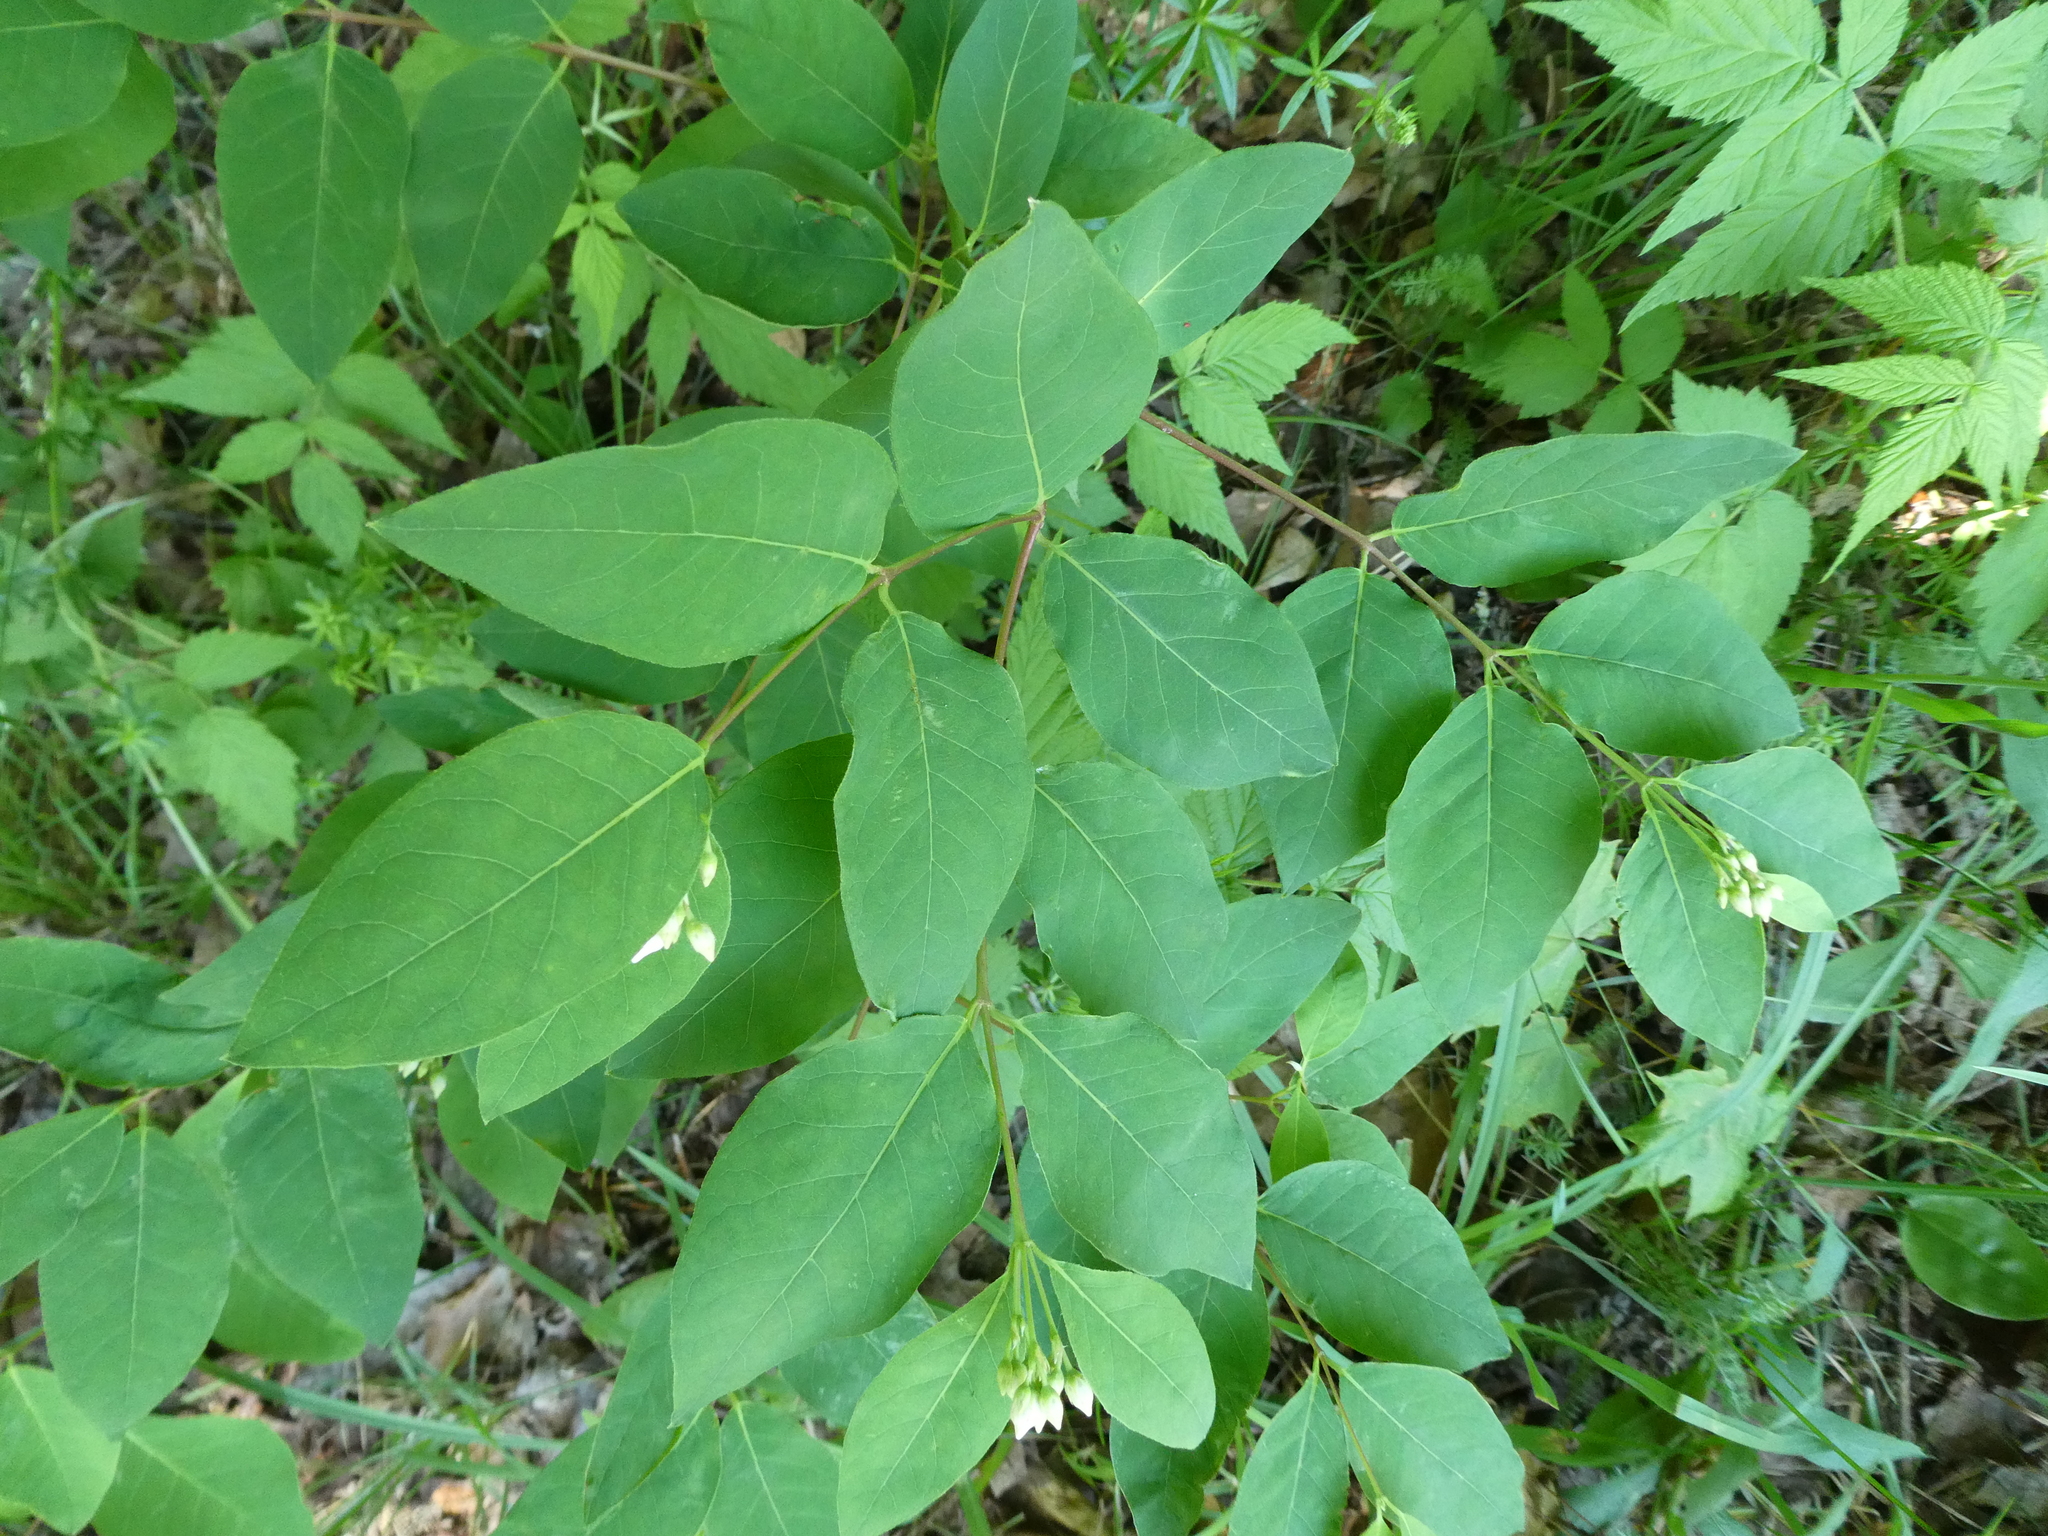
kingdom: Plantae
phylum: Tracheophyta
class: Magnoliopsida
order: Gentianales
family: Apocynaceae
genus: Apocynum
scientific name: Apocynum androsaemifolium
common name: Spreading dogbane
